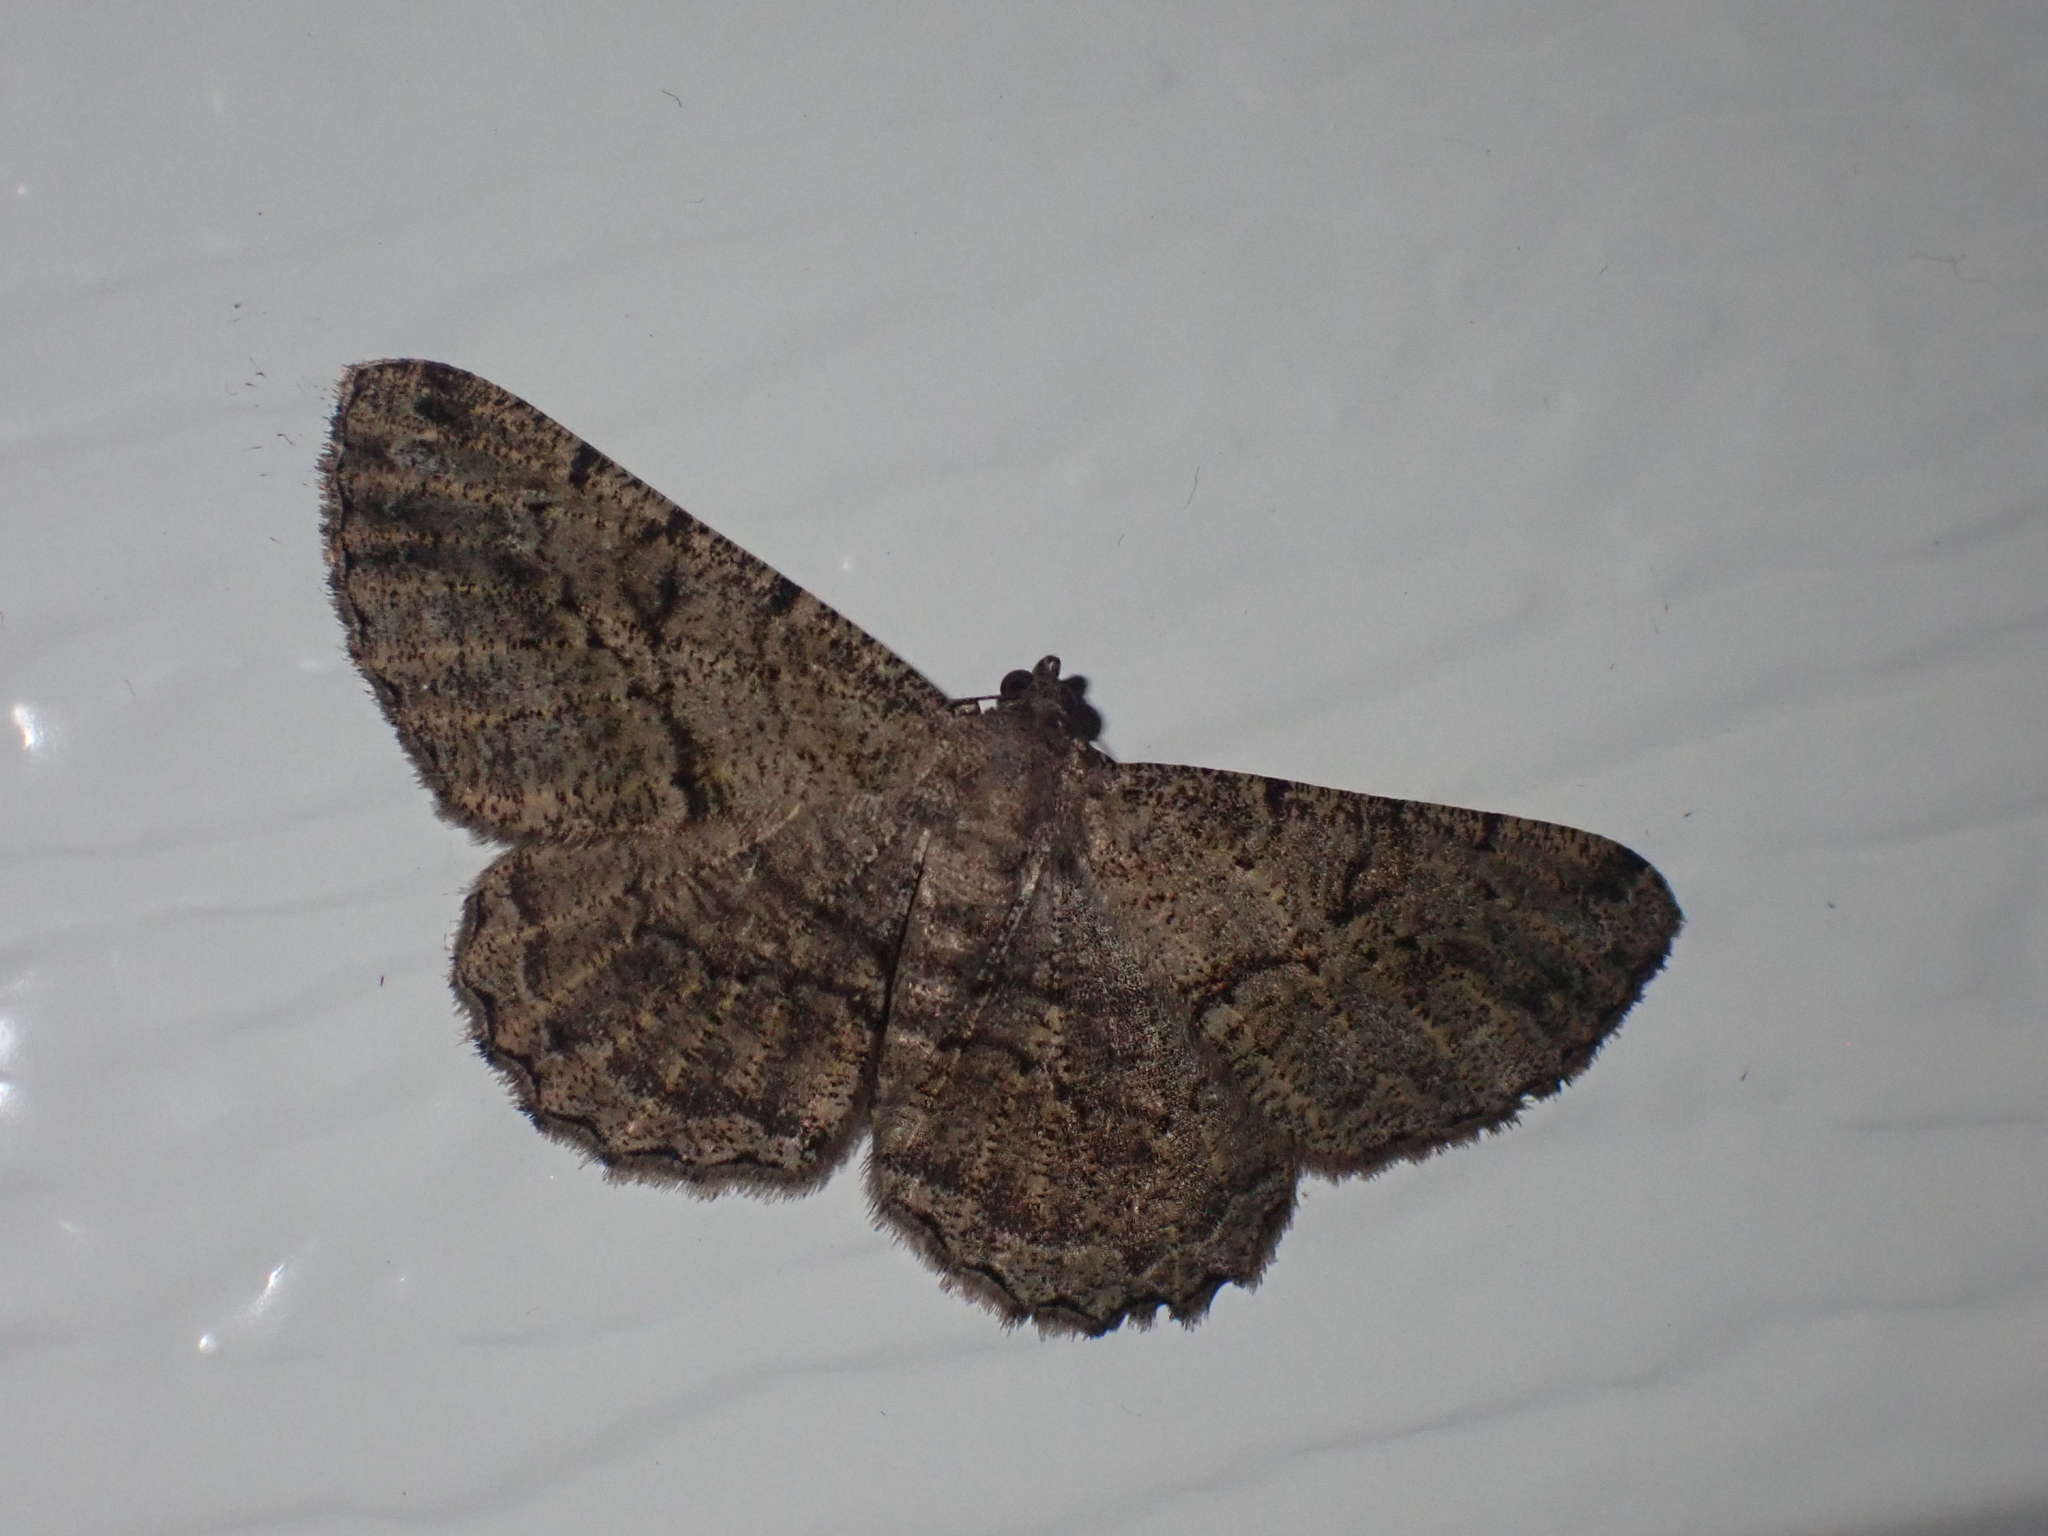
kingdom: Animalia
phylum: Arthropoda
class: Insecta
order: Lepidoptera
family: Geometridae
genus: Peribatodes
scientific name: Peribatodes rhomboidaria
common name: Willow beauty
